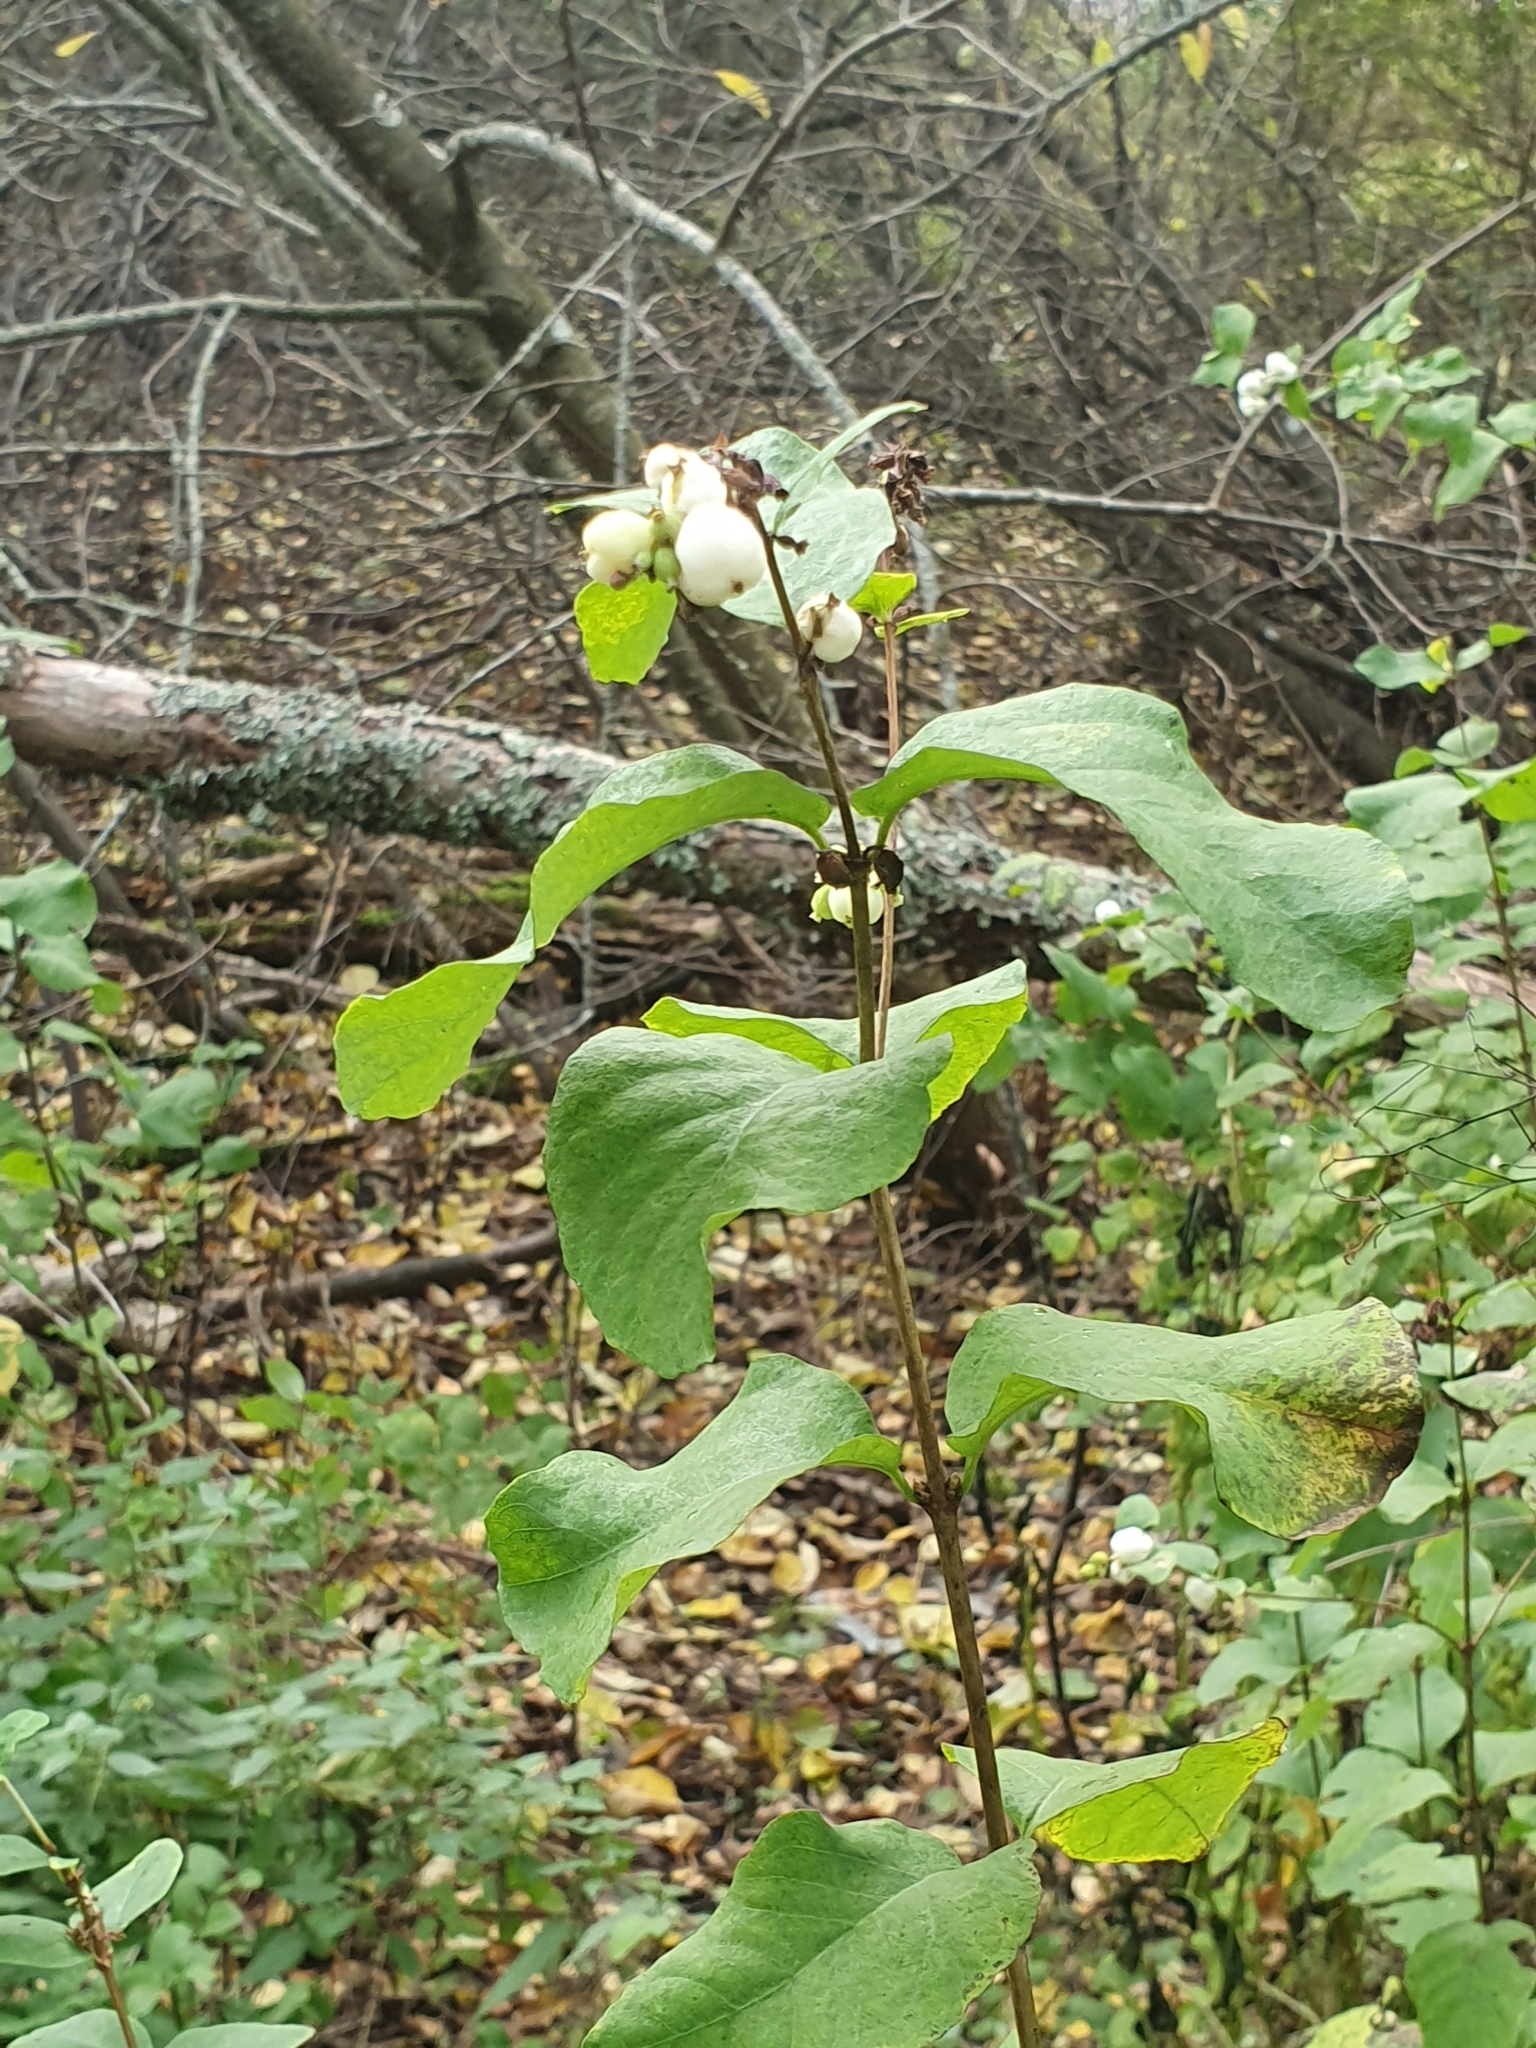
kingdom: Plantae
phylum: Tracheophyta
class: Magnoliopsida
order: Dipsacales
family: Caprifoliaceae
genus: Symphoricarpos
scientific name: Symphoricarpos albus
